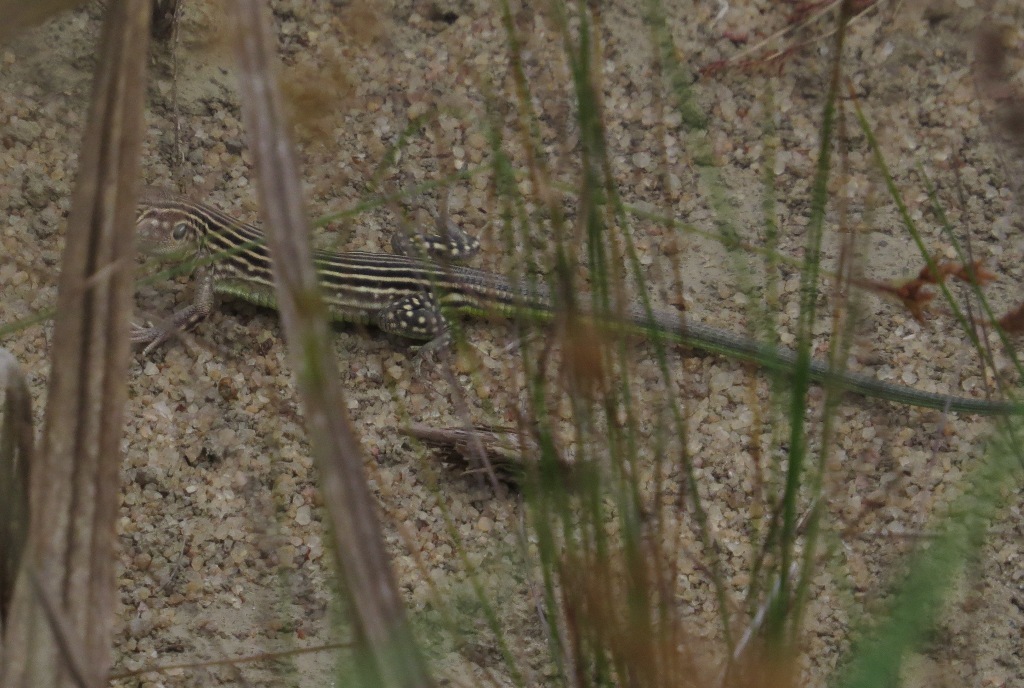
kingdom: Animalia
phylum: Chordata
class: Squamata
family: Teiidae
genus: Cnemidophorus
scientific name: Cnemidophorus lemniscatus
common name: Rainbow whiptail
